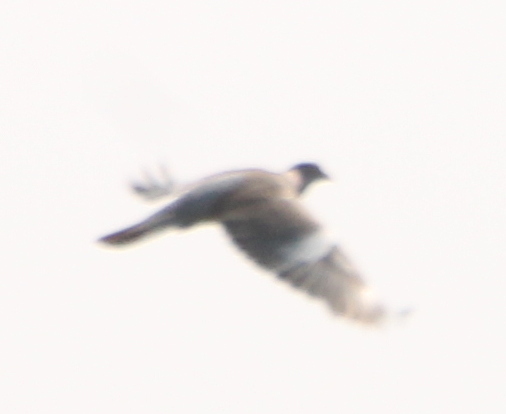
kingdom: Animalia
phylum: Chordata
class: Aves
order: Columbiformes
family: Columbidae
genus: Columba
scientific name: Columba palumbus
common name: Common wood pigeon
